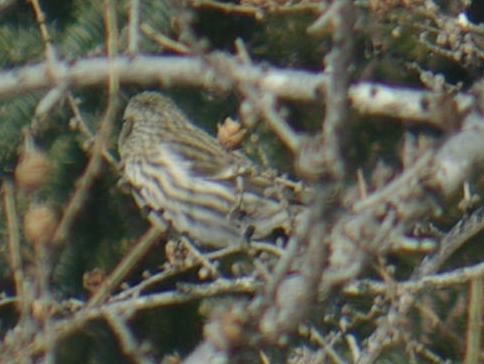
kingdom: Animalia
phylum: Chordata
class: Aves
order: Passeriformes
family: Fringillidae
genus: Acanthis
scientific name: Acanthis flammea
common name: Common redpoll
